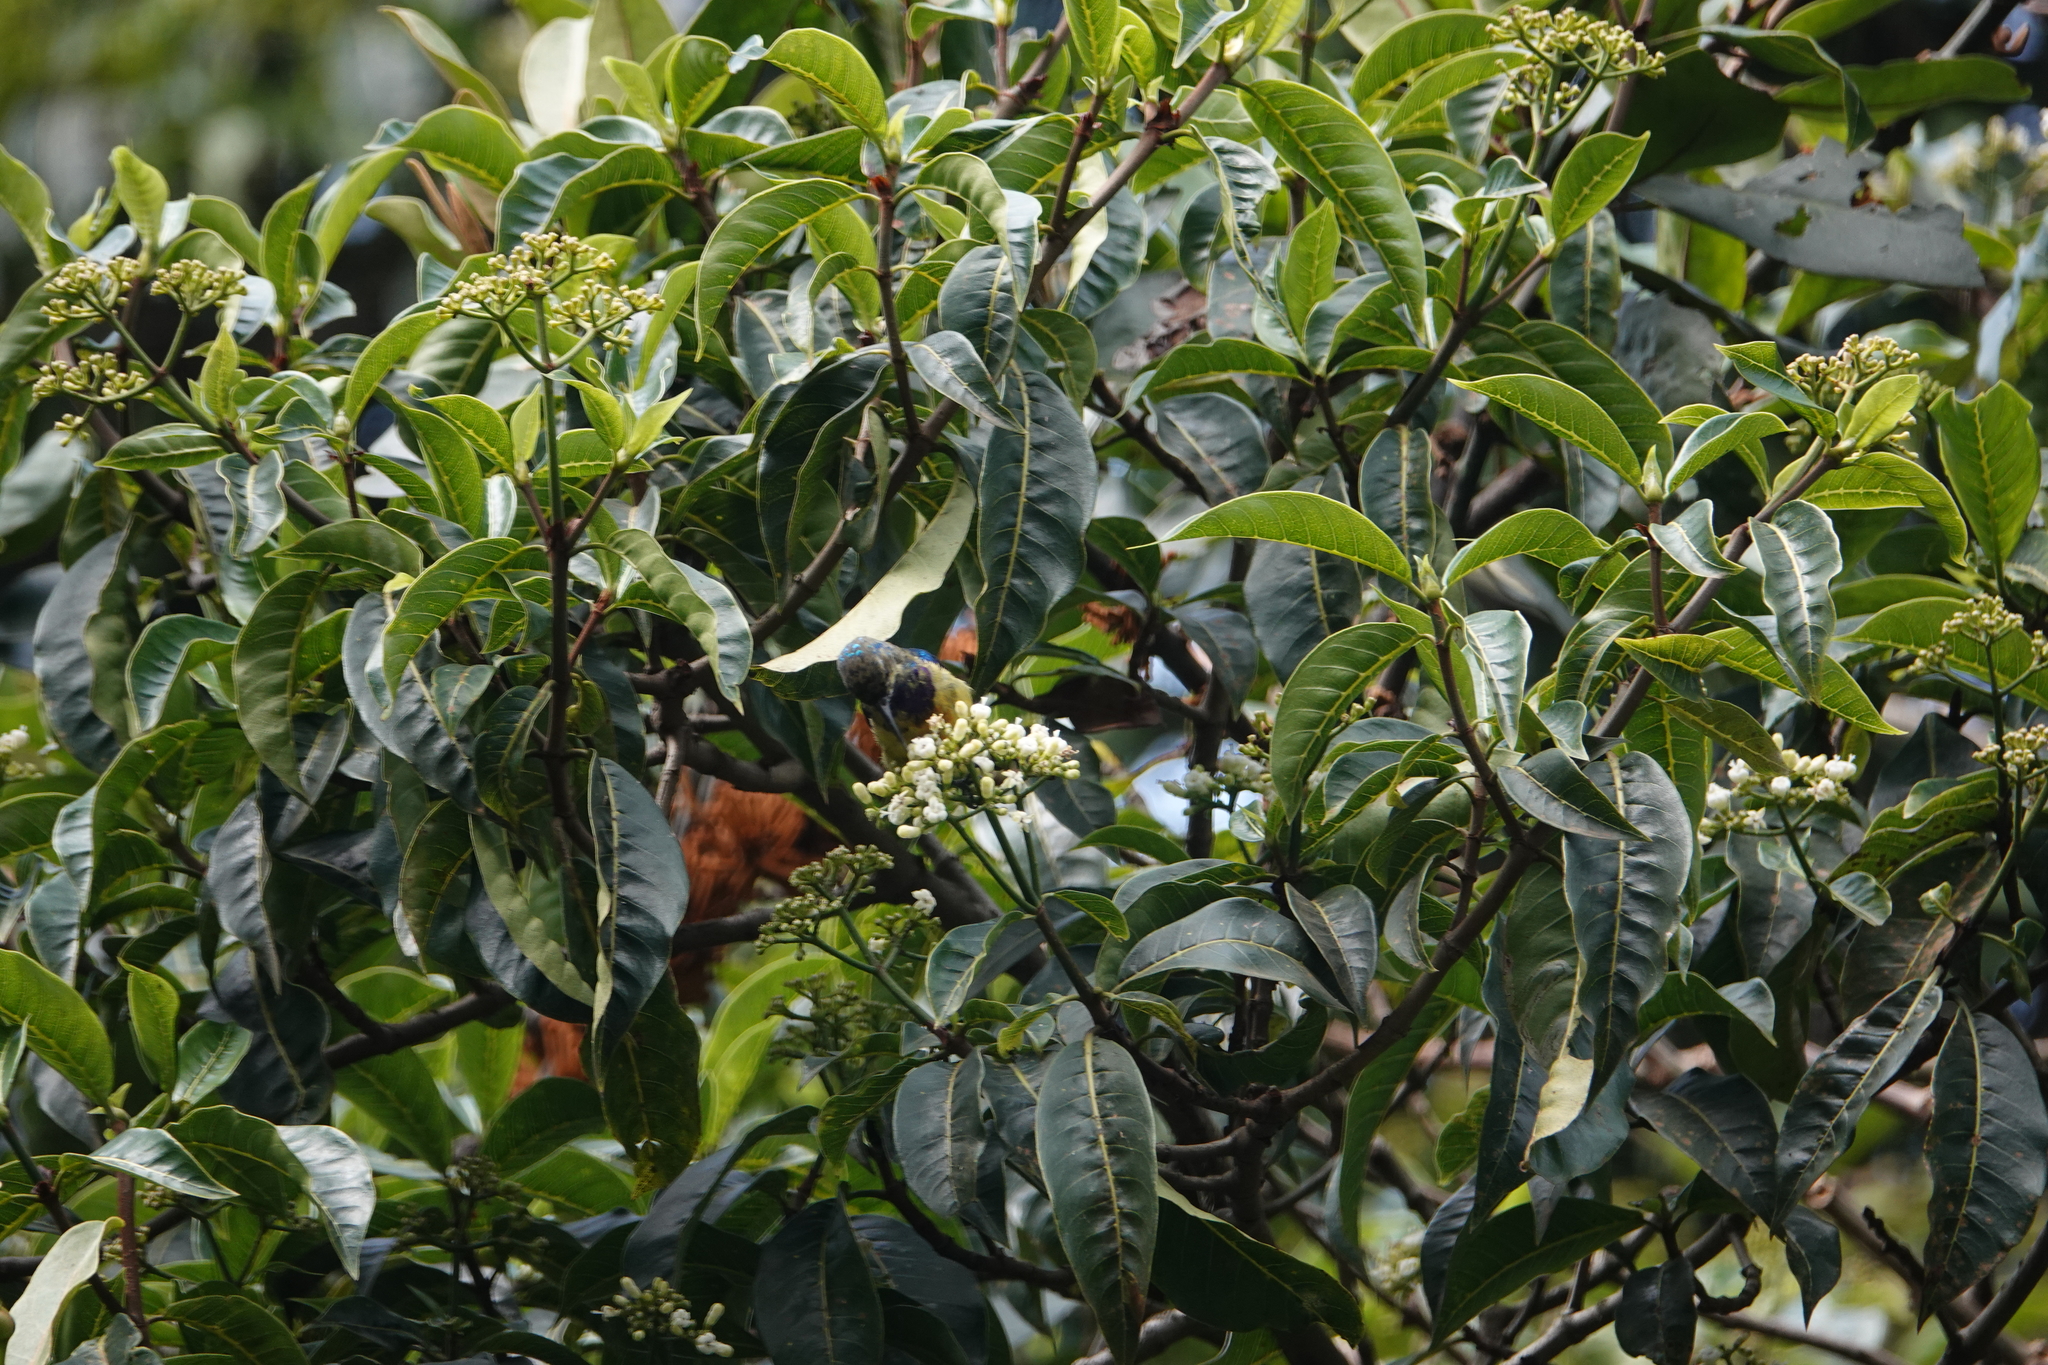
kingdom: Animalia
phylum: Chordata
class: Aves
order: Passeriformes
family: Nectariniidae
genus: Cinnyris
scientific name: Cinnyris venustus
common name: Variable sunbird
